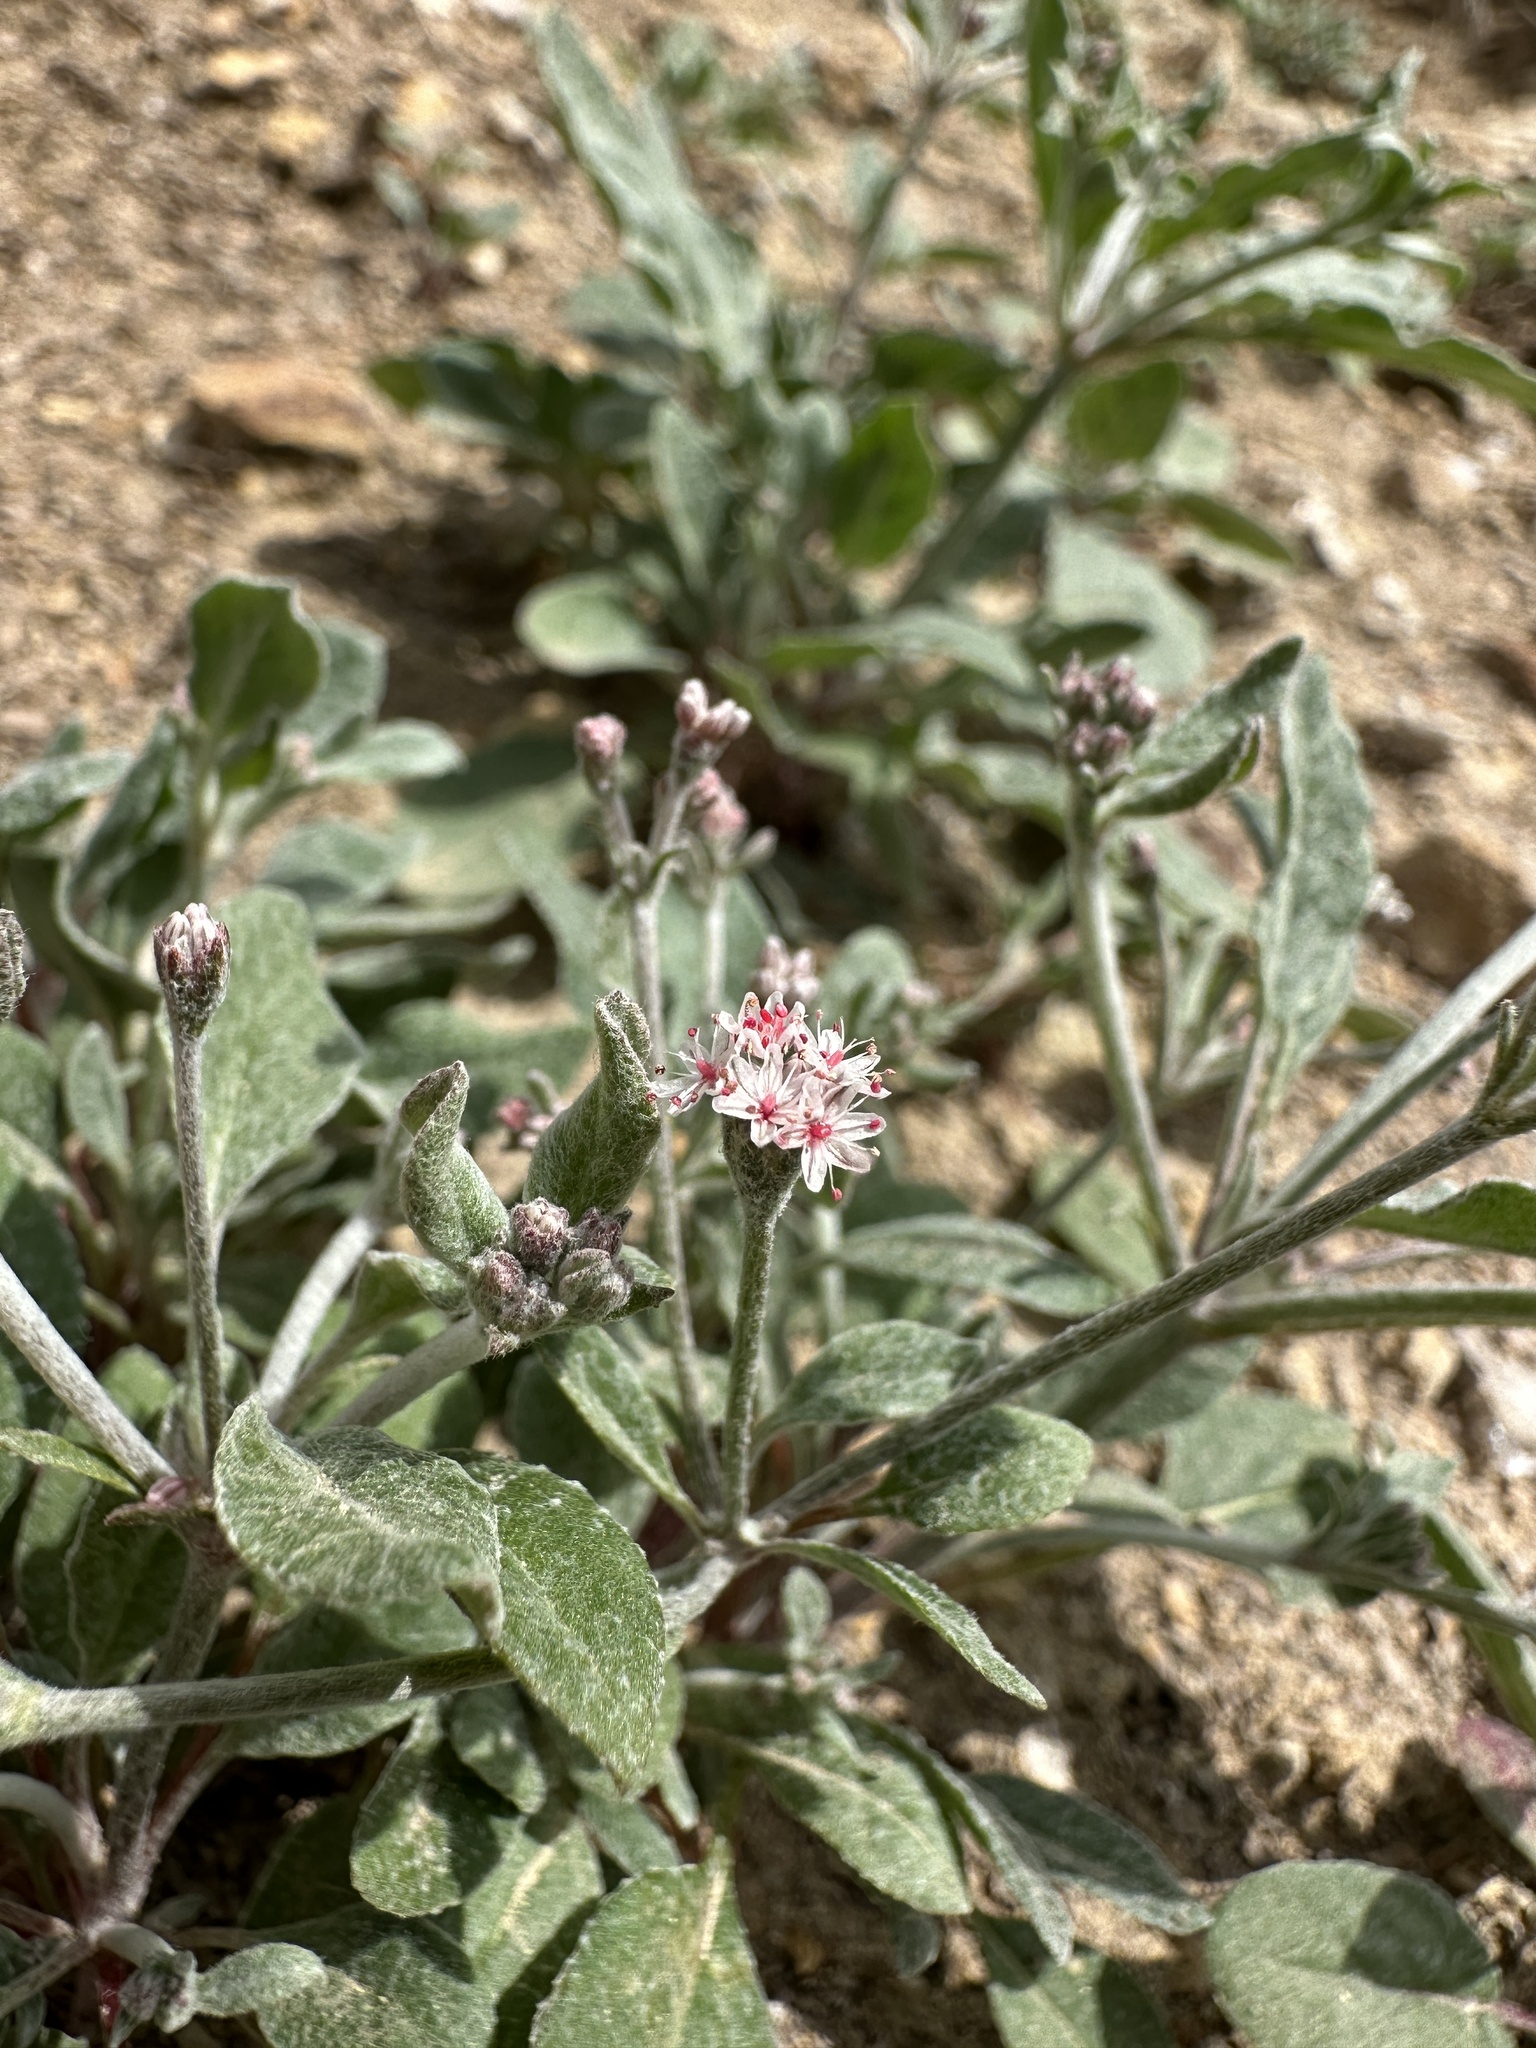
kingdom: Plantae
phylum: Tracheophyta
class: Magnoliopsida
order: Caryophyllales
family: Polygonaceae
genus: Eriogonum
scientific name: Eriogonum vestitum
